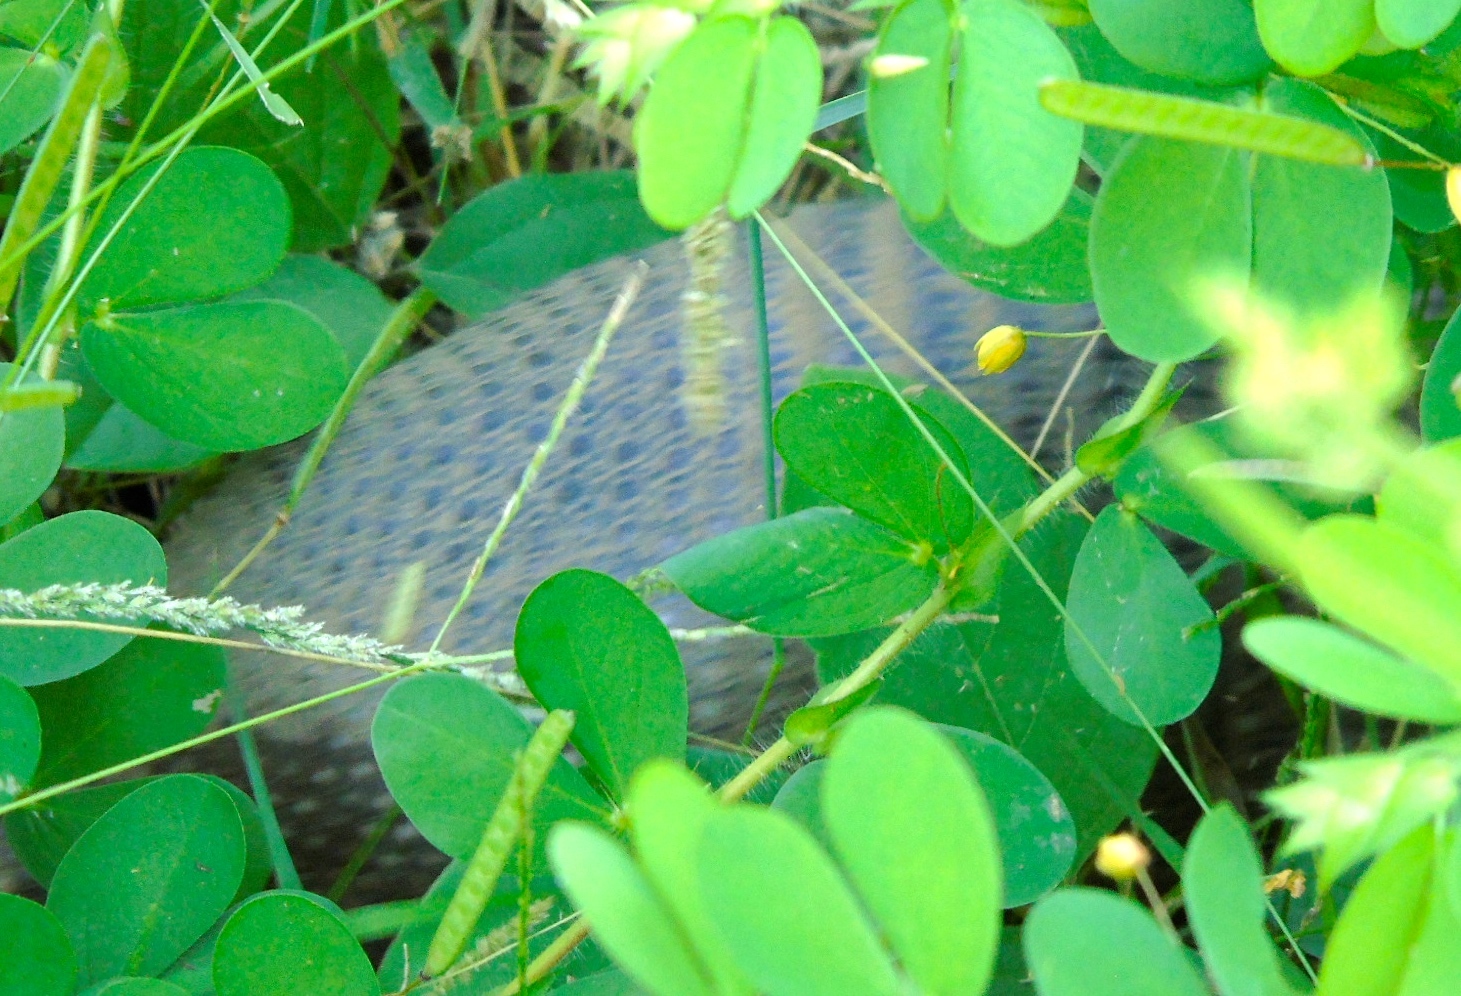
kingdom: Animalia
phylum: Chordata
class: Mammalia
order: Cingulata
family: Dasypodidae
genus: Dasypus
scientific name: Dasypus novemcinctus
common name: Nine-banded armadillo
